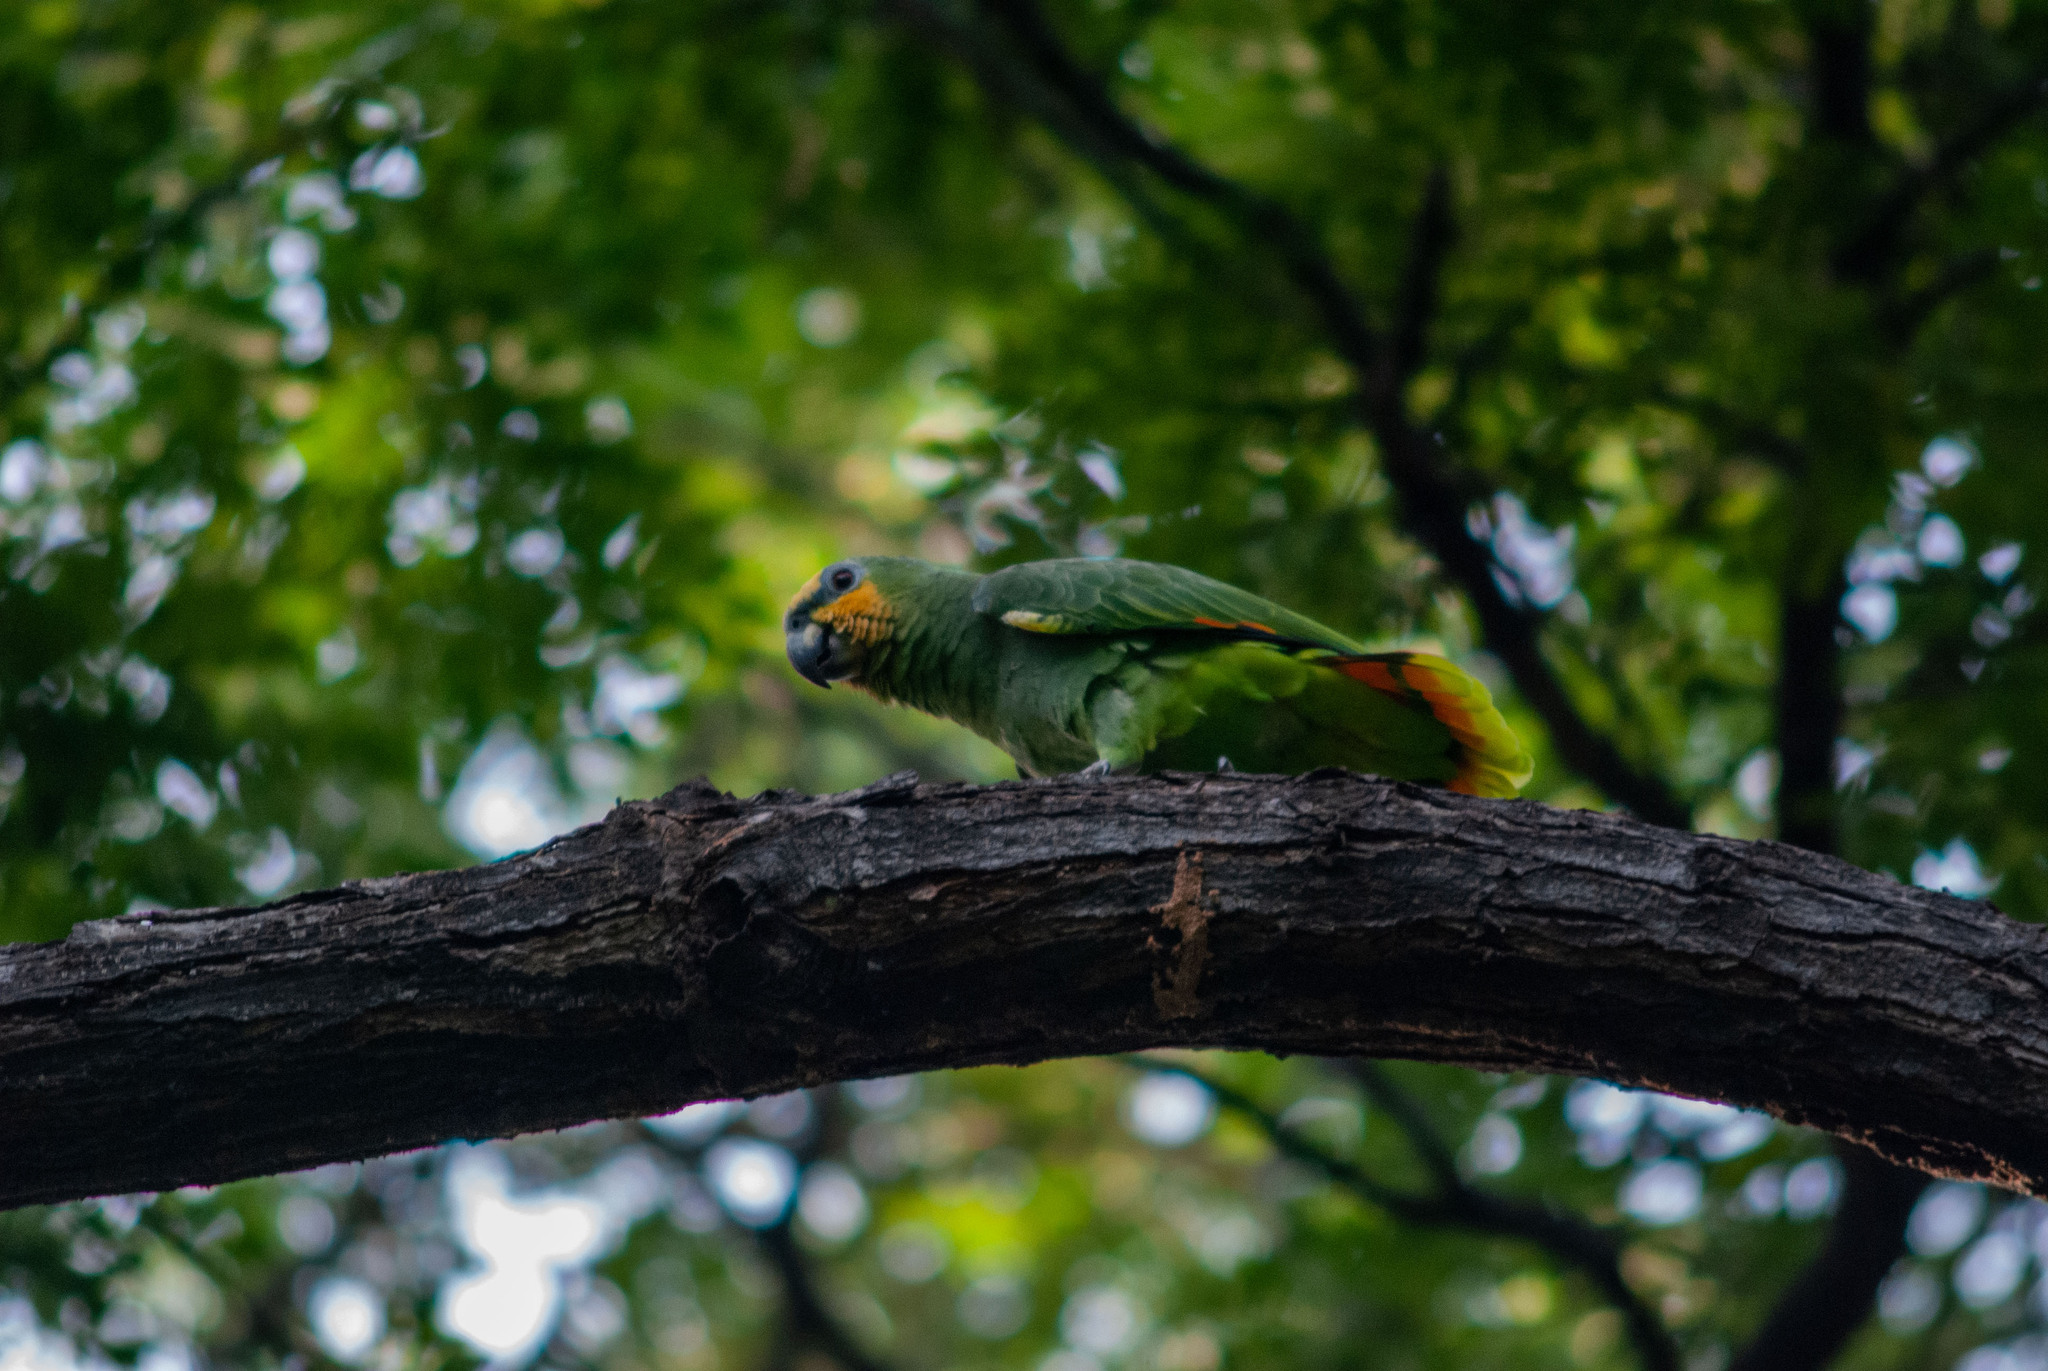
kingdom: Animalia
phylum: Chordata
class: Aves
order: Psittaciformes
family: Psittacidae
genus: Amazona
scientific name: Amazona amazonica
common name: Orange-winged amazon
